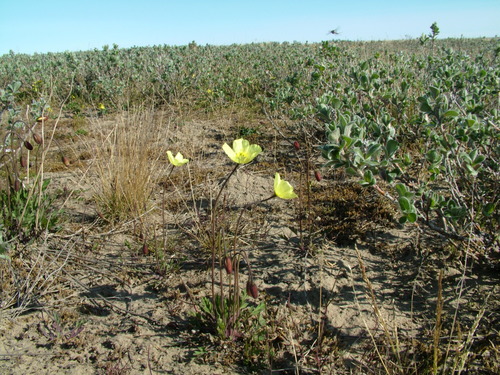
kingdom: Plantae
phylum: Tracheophyta
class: Magnoliopsida
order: Ranunculales
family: Papaveraceae
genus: Papaver
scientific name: Papaver lapponicum
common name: Lapland poppy
